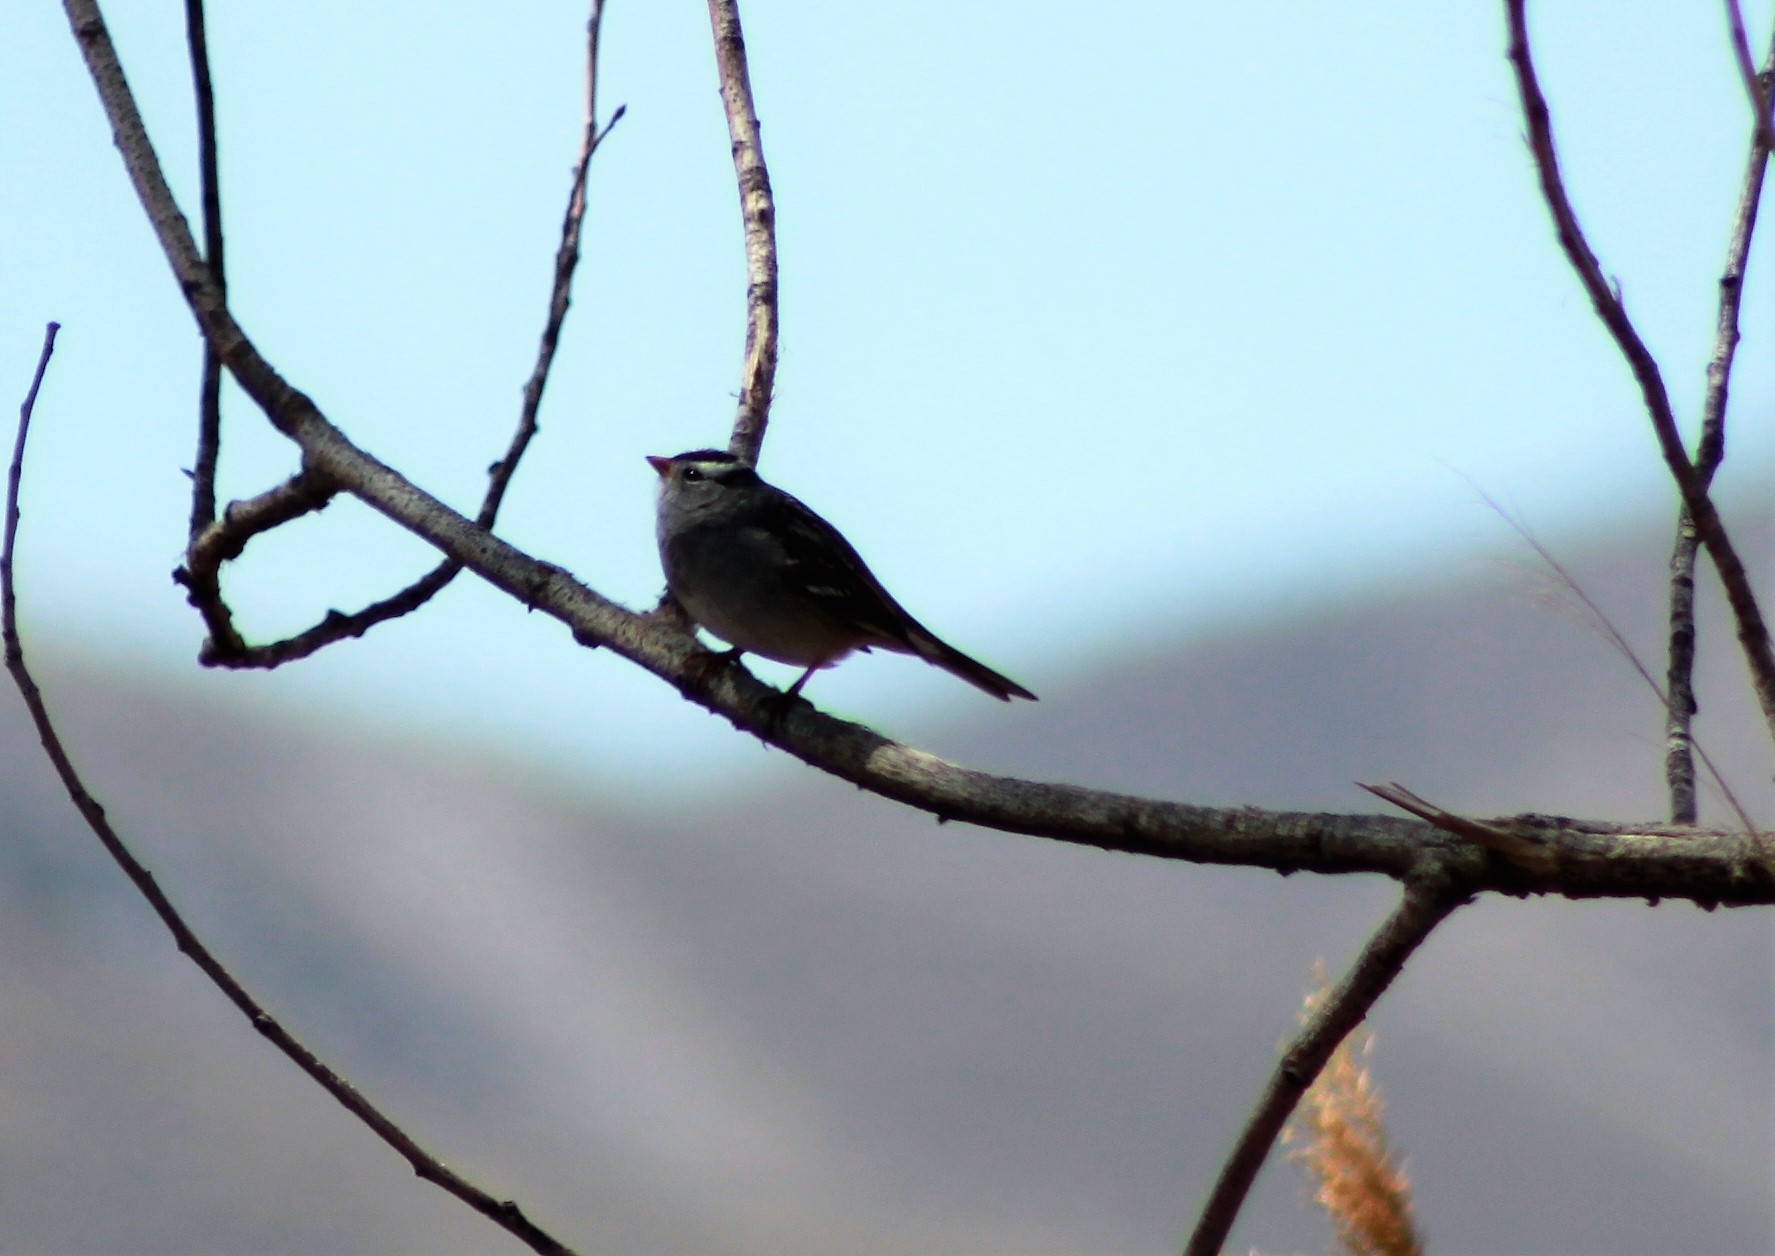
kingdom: Animalia
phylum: Chordata
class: Aves
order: Passeriformes
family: Passerellidae
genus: Zonotrichia
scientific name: Zonotrichia leucophrys
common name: White-crowned sparrow
